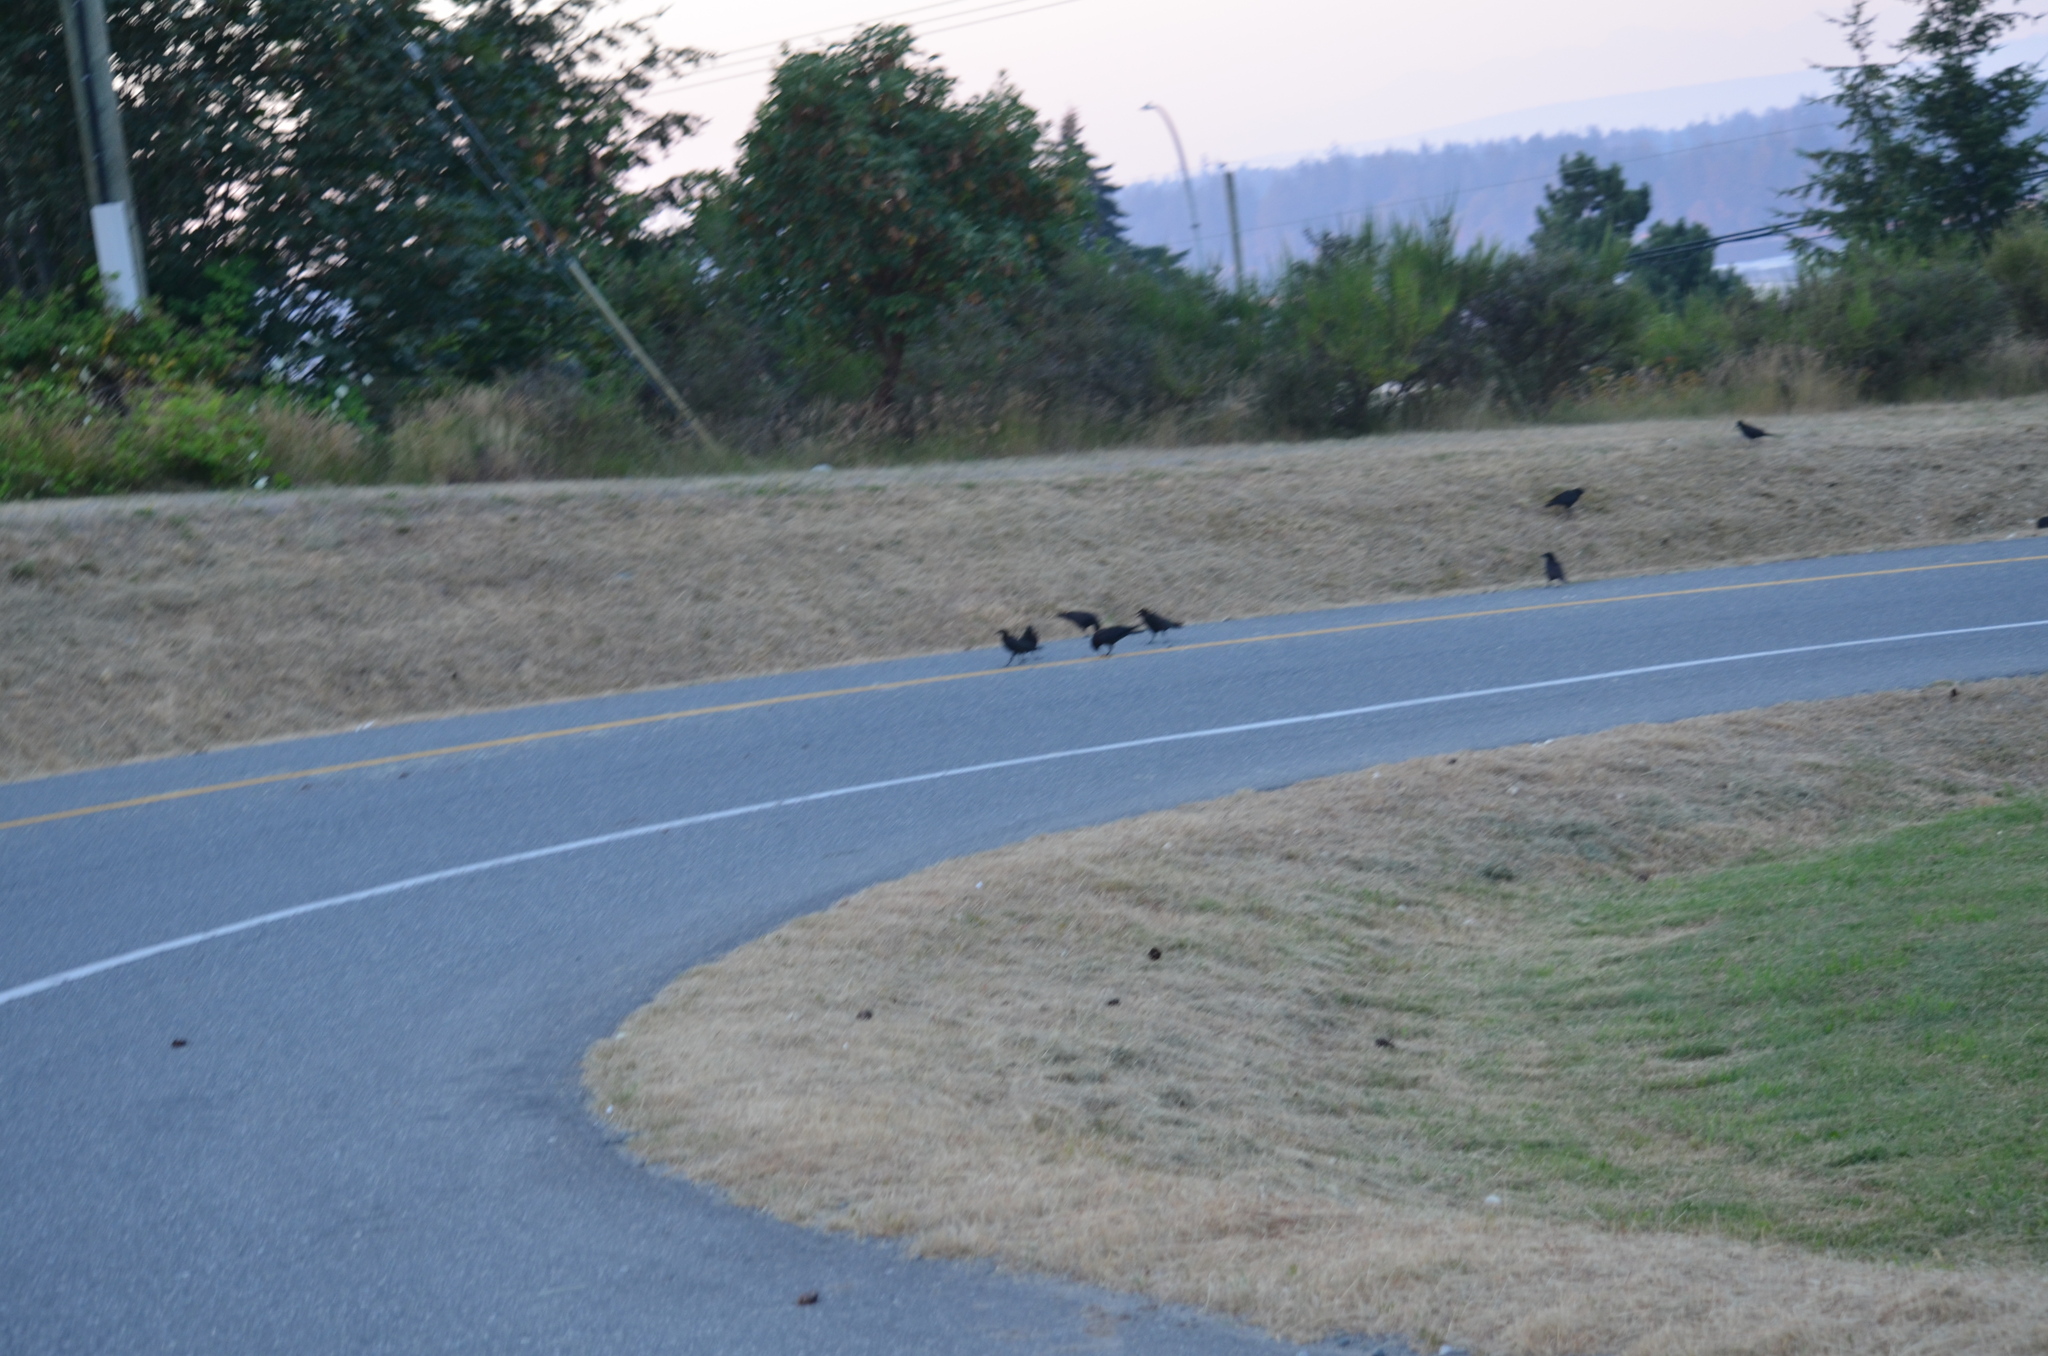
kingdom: Animalia
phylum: Chordata
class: Aves
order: Passeriformes
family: Corvidae
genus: Corvus
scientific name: Corvus brachyrhynchos
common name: American crow
